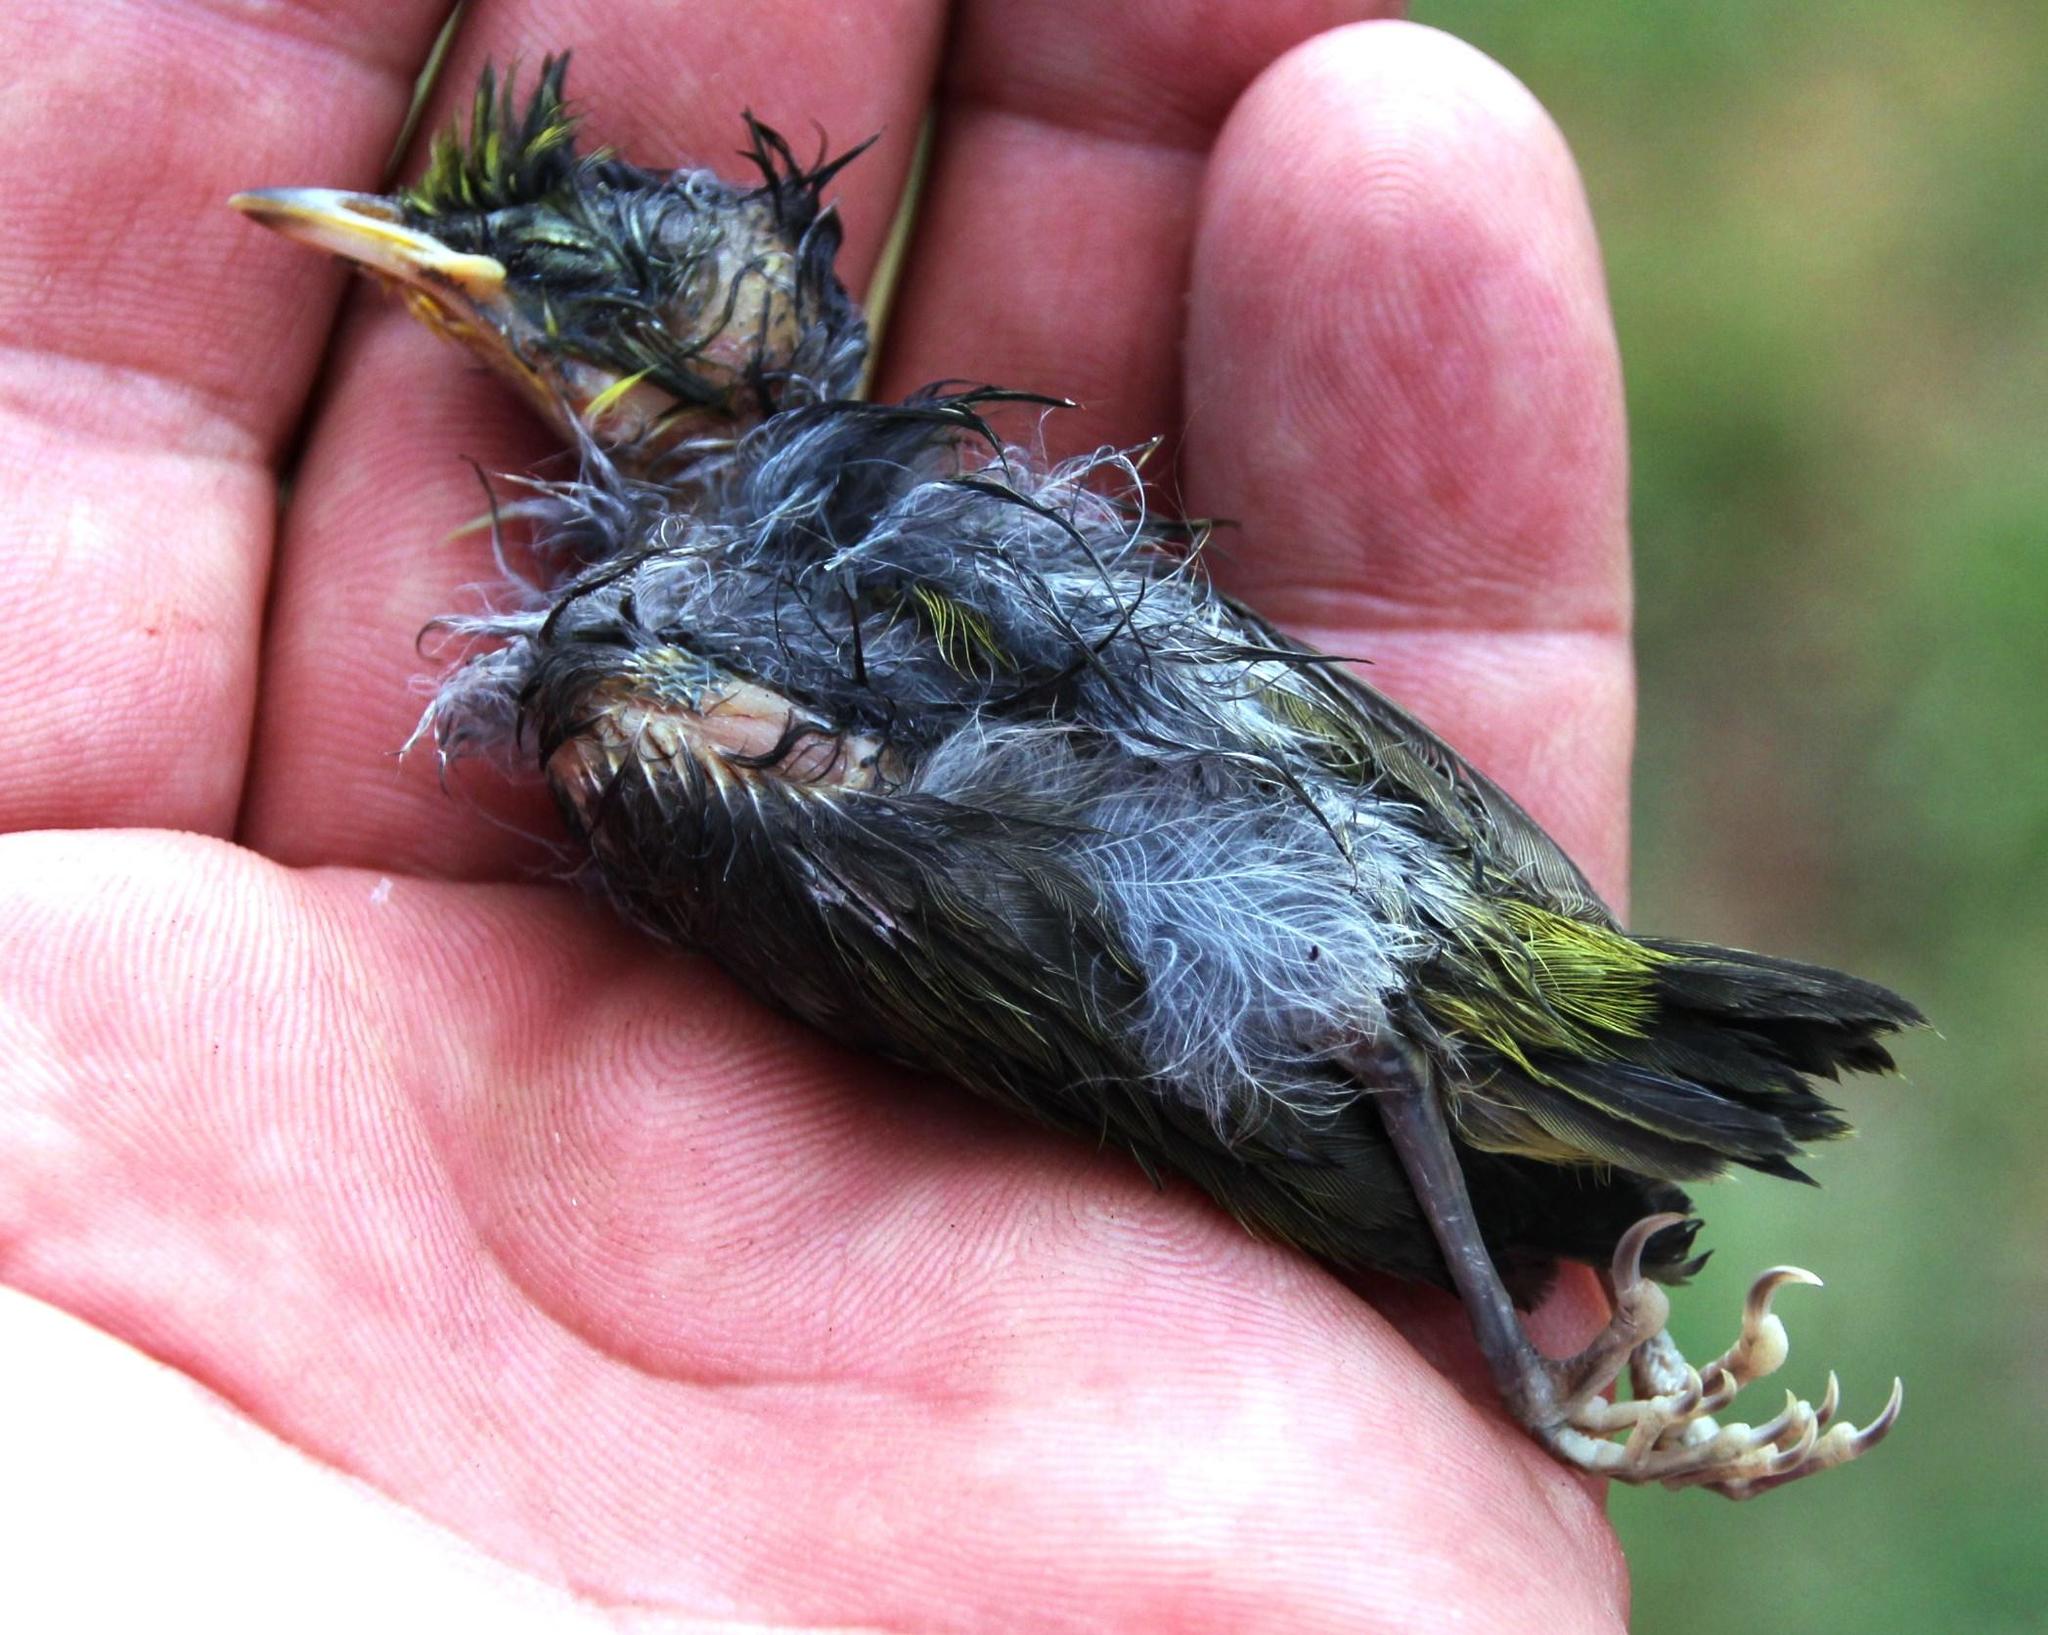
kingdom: Animalia
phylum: Chordata
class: Aves
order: Passeriformes
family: Zosteropidae
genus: Zosterops
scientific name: Zosterops virens
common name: Cape white-eye
